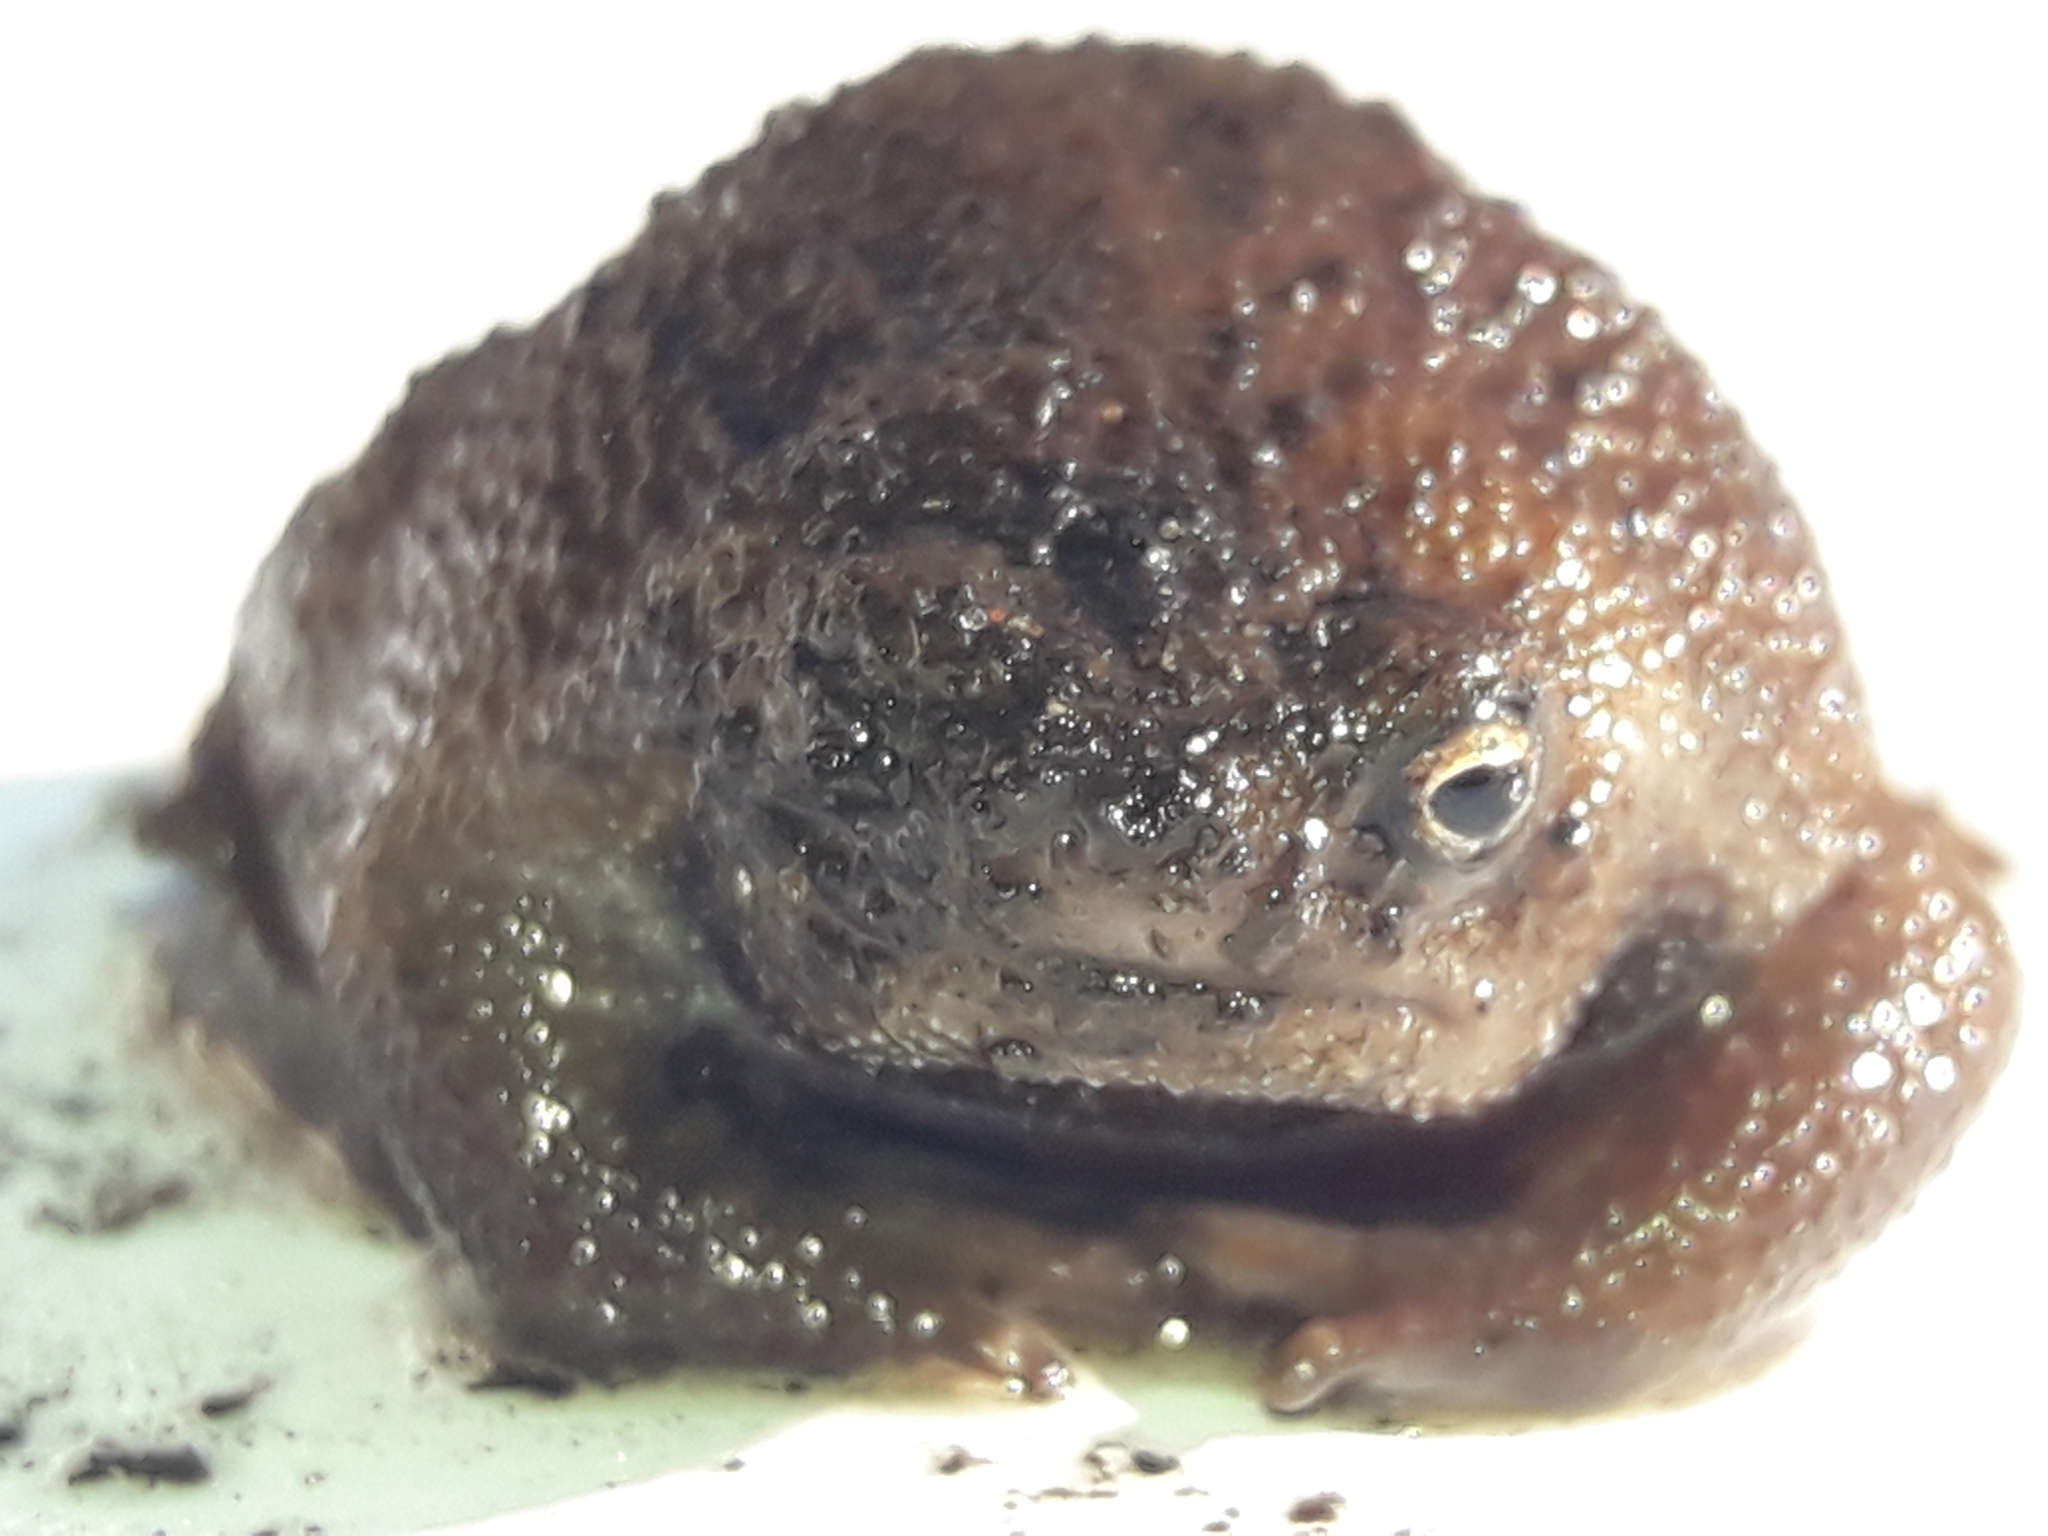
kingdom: Animalia
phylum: Chordata
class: Amphibia
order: Anura
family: Brevicipitidae
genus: Breviceps
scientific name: Breviceps verrucosus
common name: Plaintive rain frog
